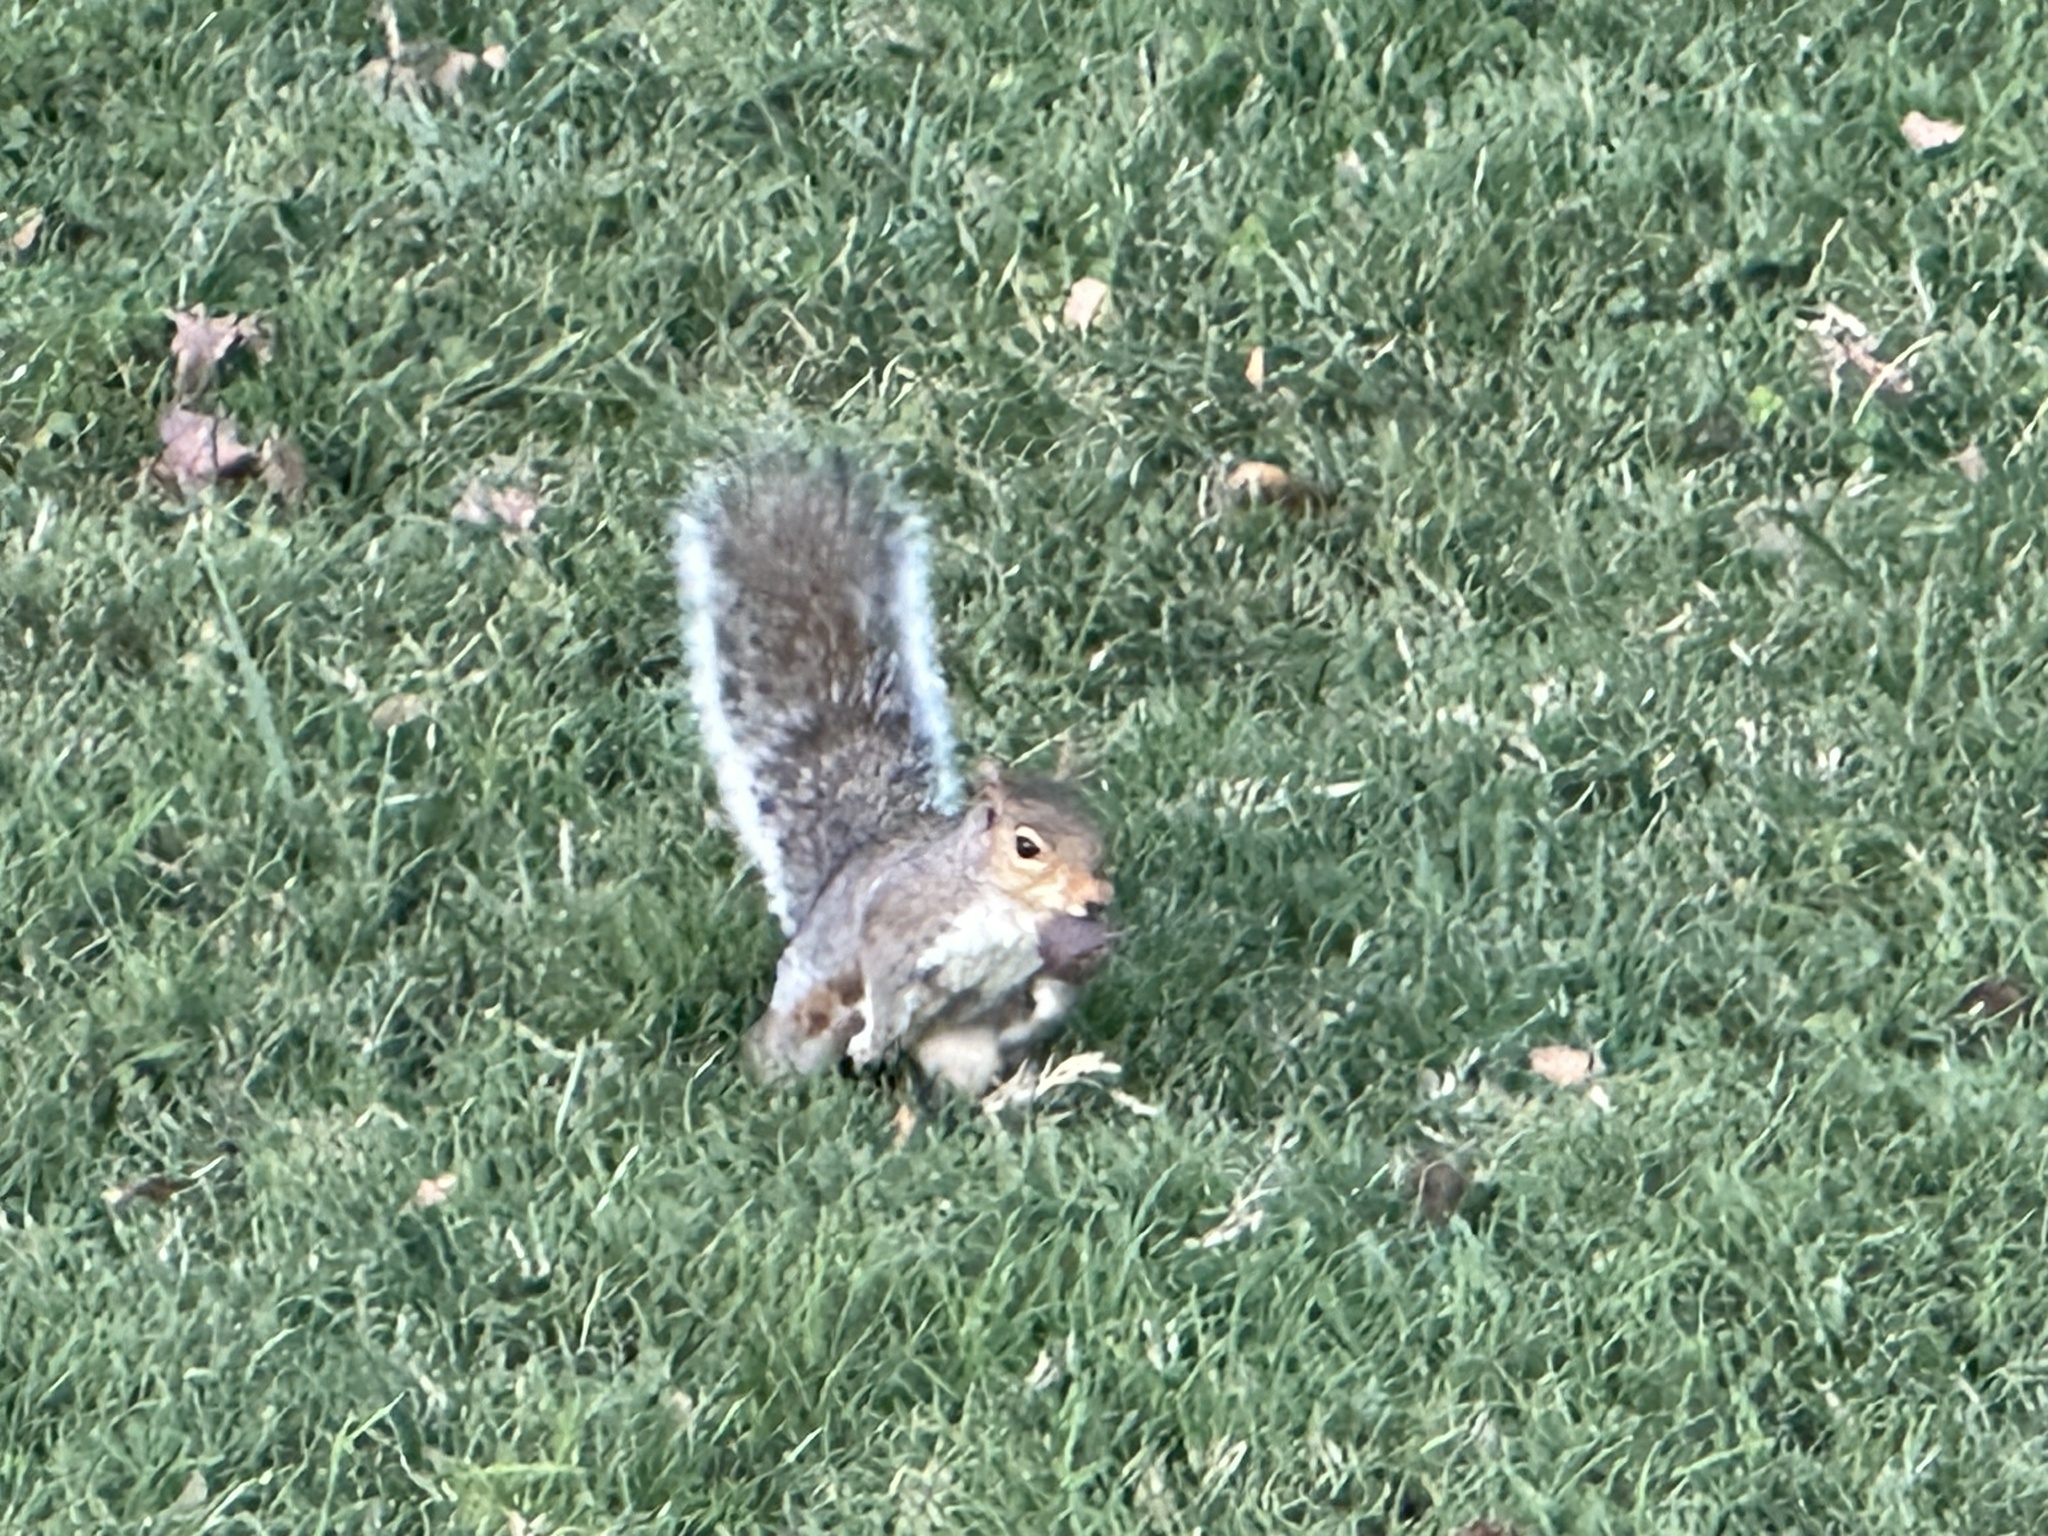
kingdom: Animalia
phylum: Chordata
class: Mammalia
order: Rodentia
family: Sciuridae
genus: Sciurus
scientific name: Sciurus carolinensis
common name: Eastern gray squirrel
